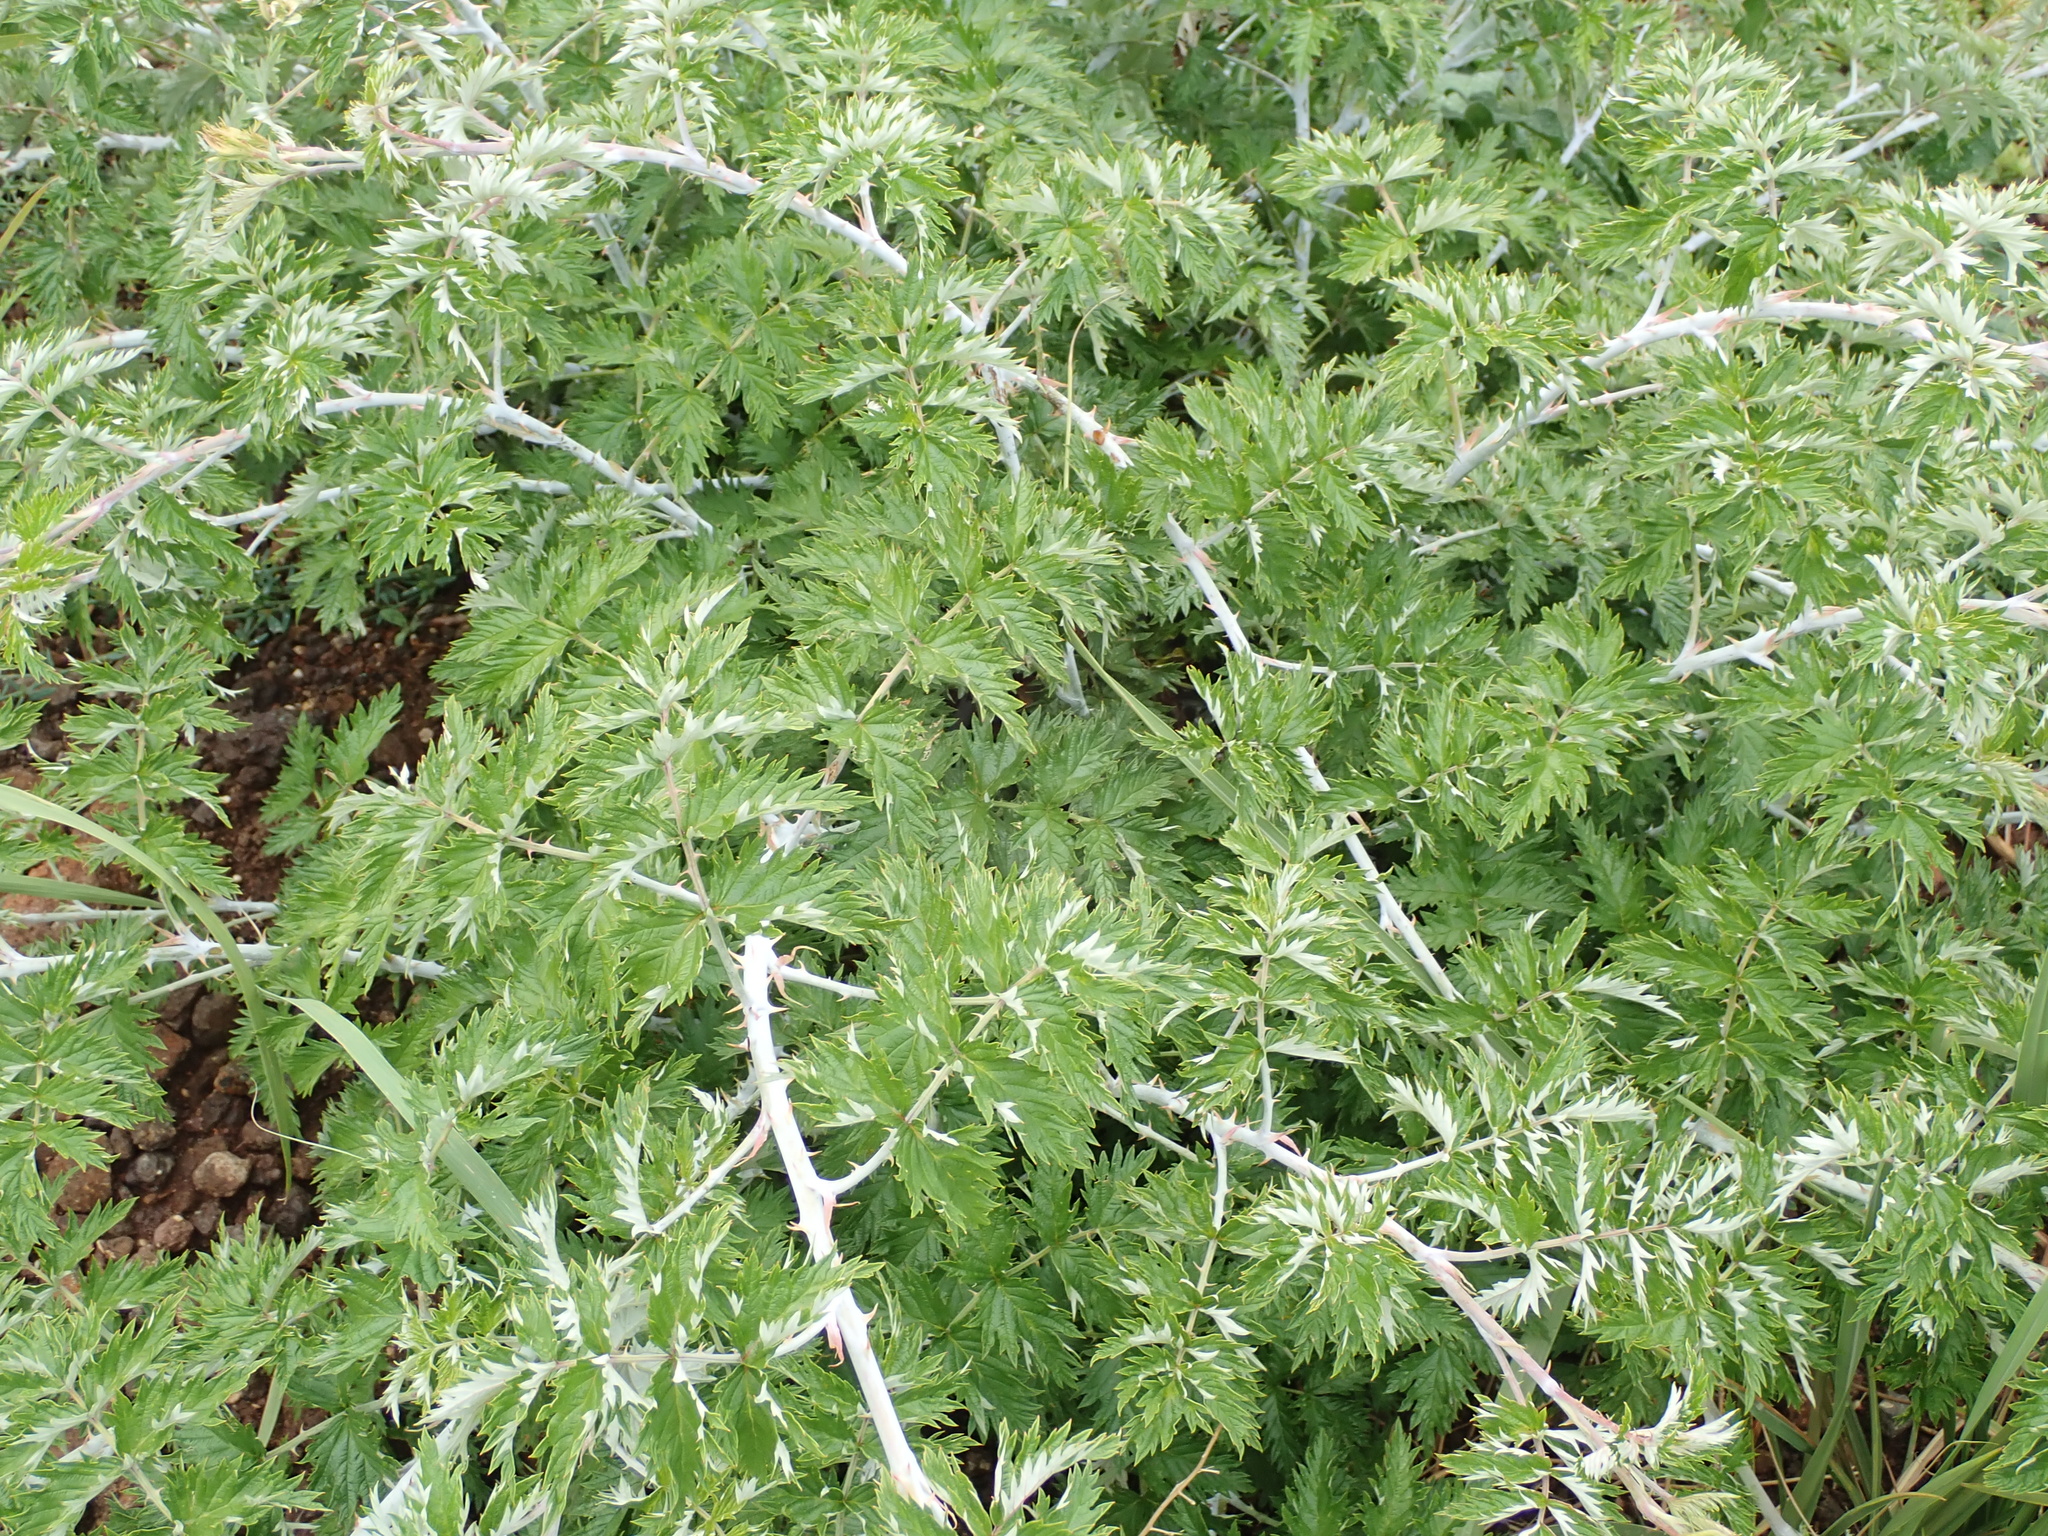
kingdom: Plantae
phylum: Tracheophyta
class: Magnoliopsida
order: Rosales
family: Rosaceae
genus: Rubus
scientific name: Rubus ludwigii
